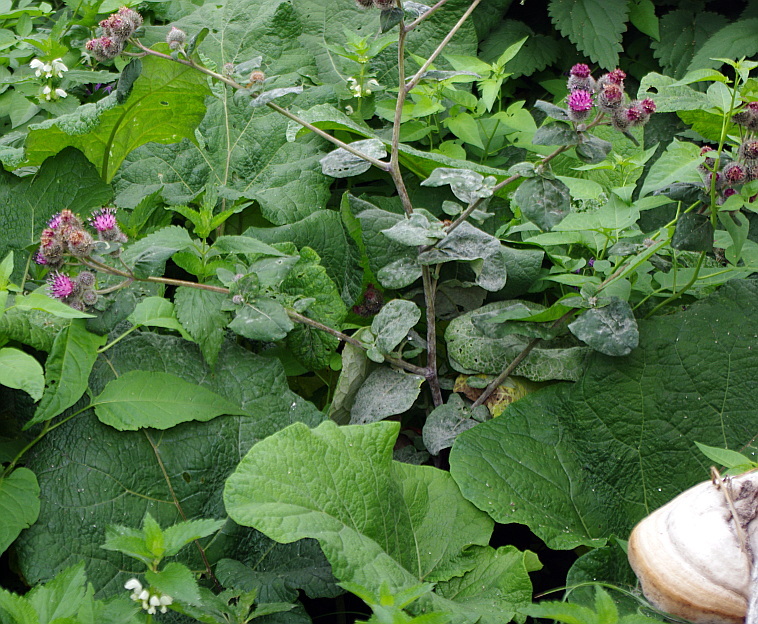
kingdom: Plantae
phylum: Tracheophyta
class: Magnoliopsida
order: Asterales
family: Asteraceae
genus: Arctium
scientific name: Arctium tomentosum
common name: Woolly burdock
